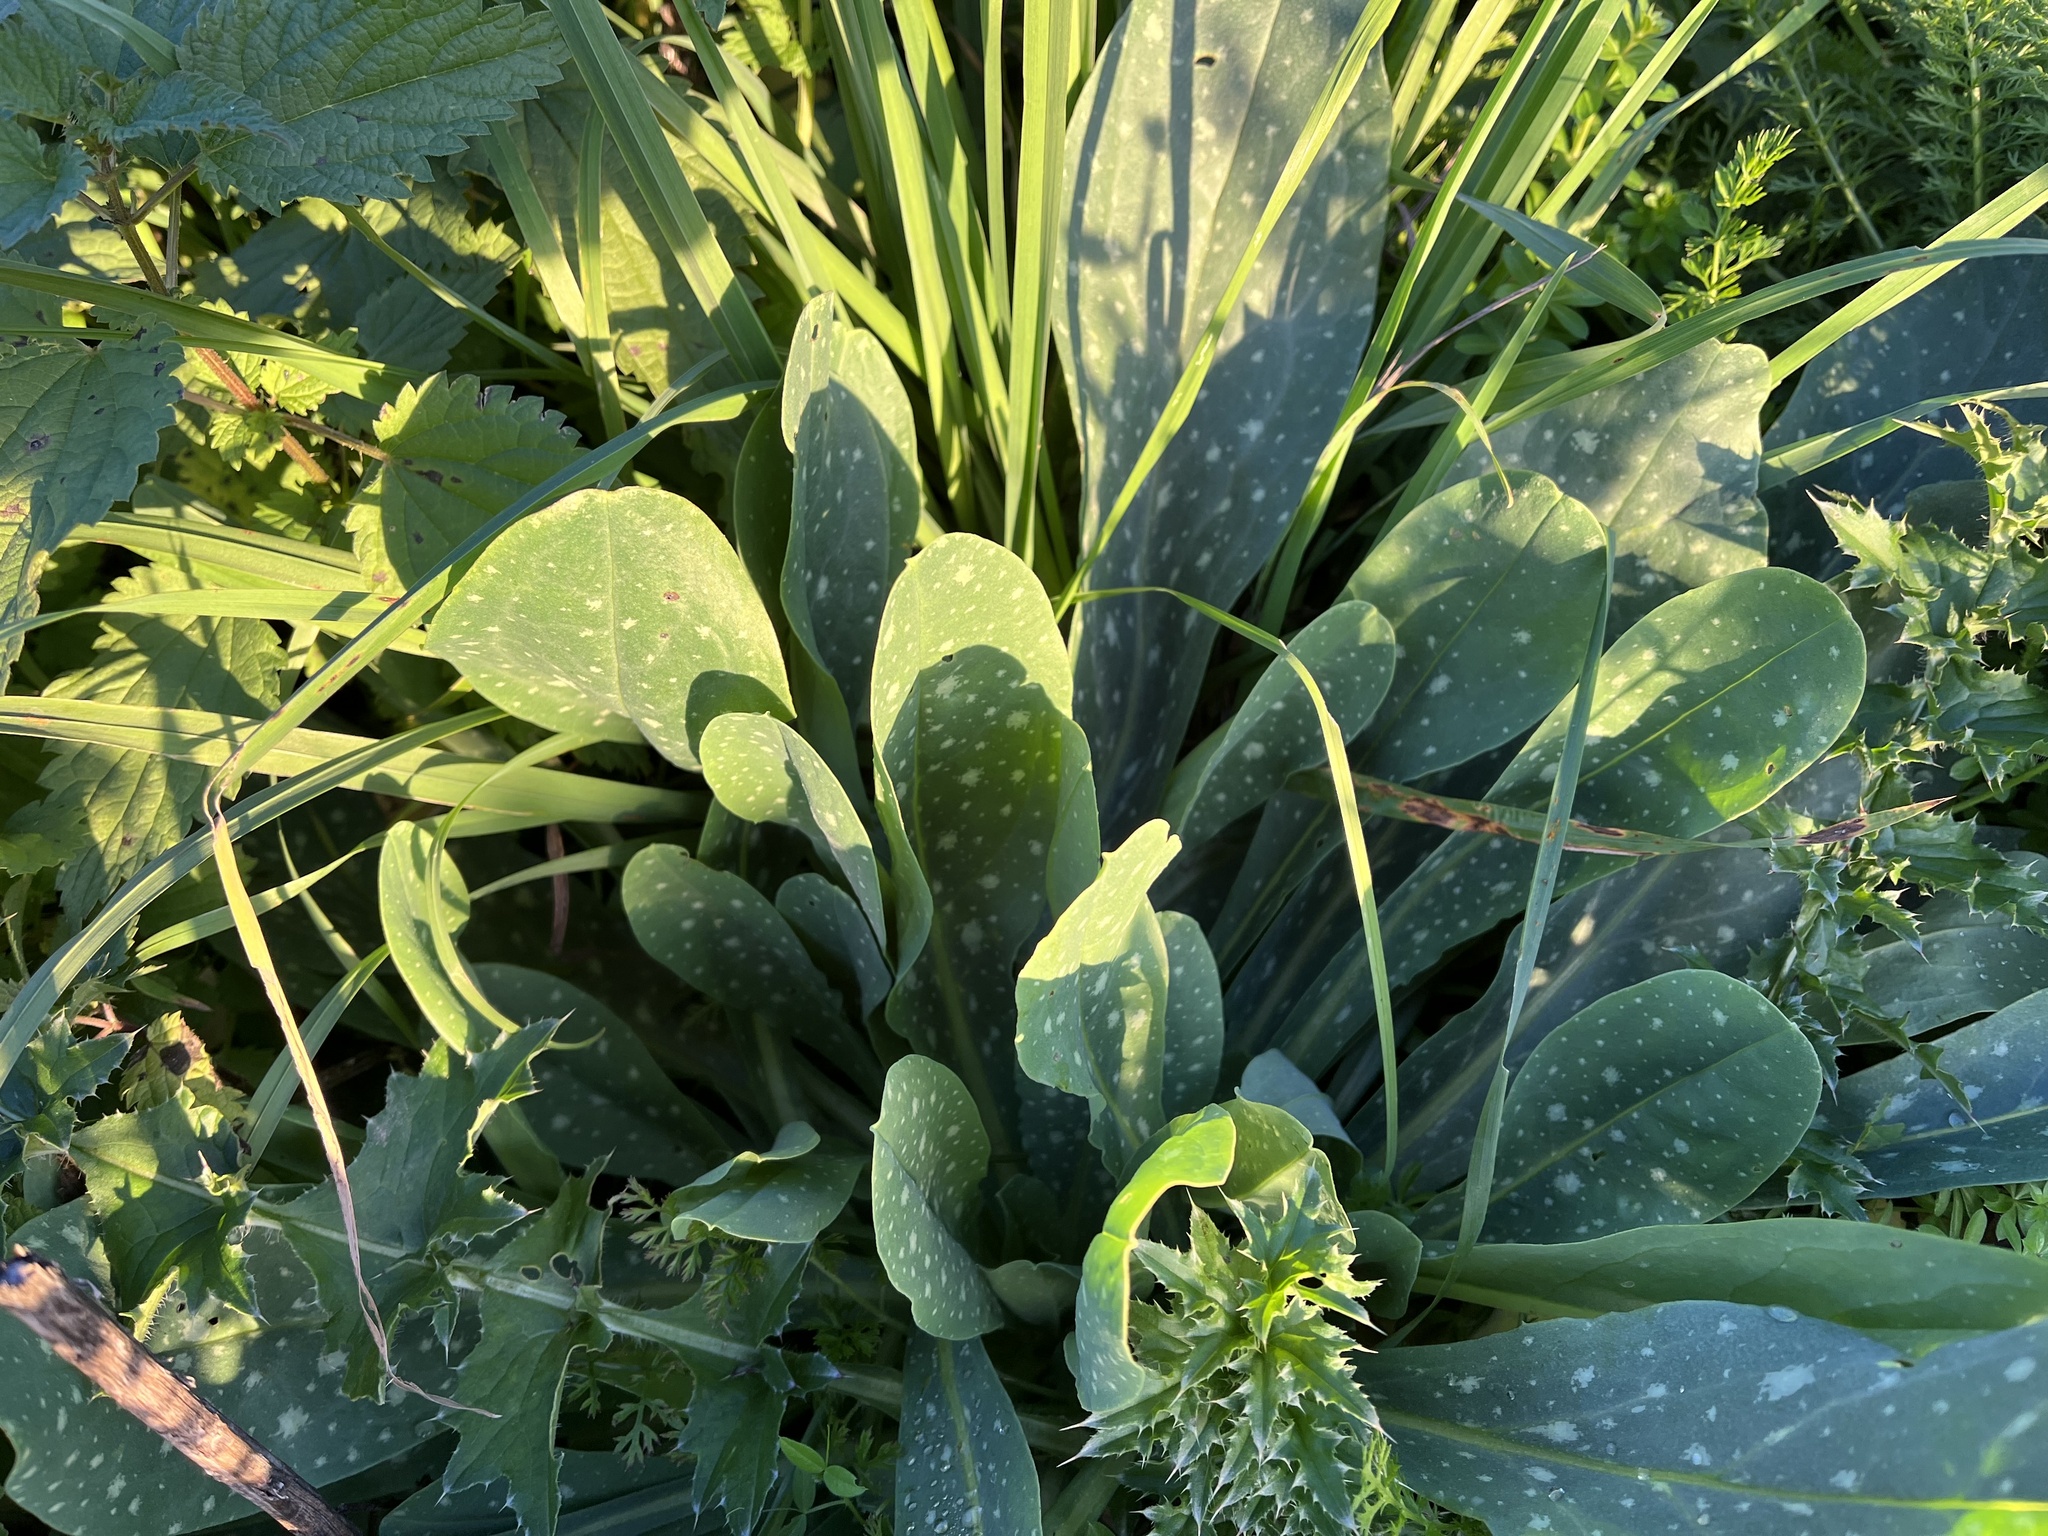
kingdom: Plantae
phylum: Tracheophyta
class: Magnoliopsida
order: Boraginales
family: Boraginaceae
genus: Cerinthe
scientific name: Cerinthe minor
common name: Lesser honeywort
